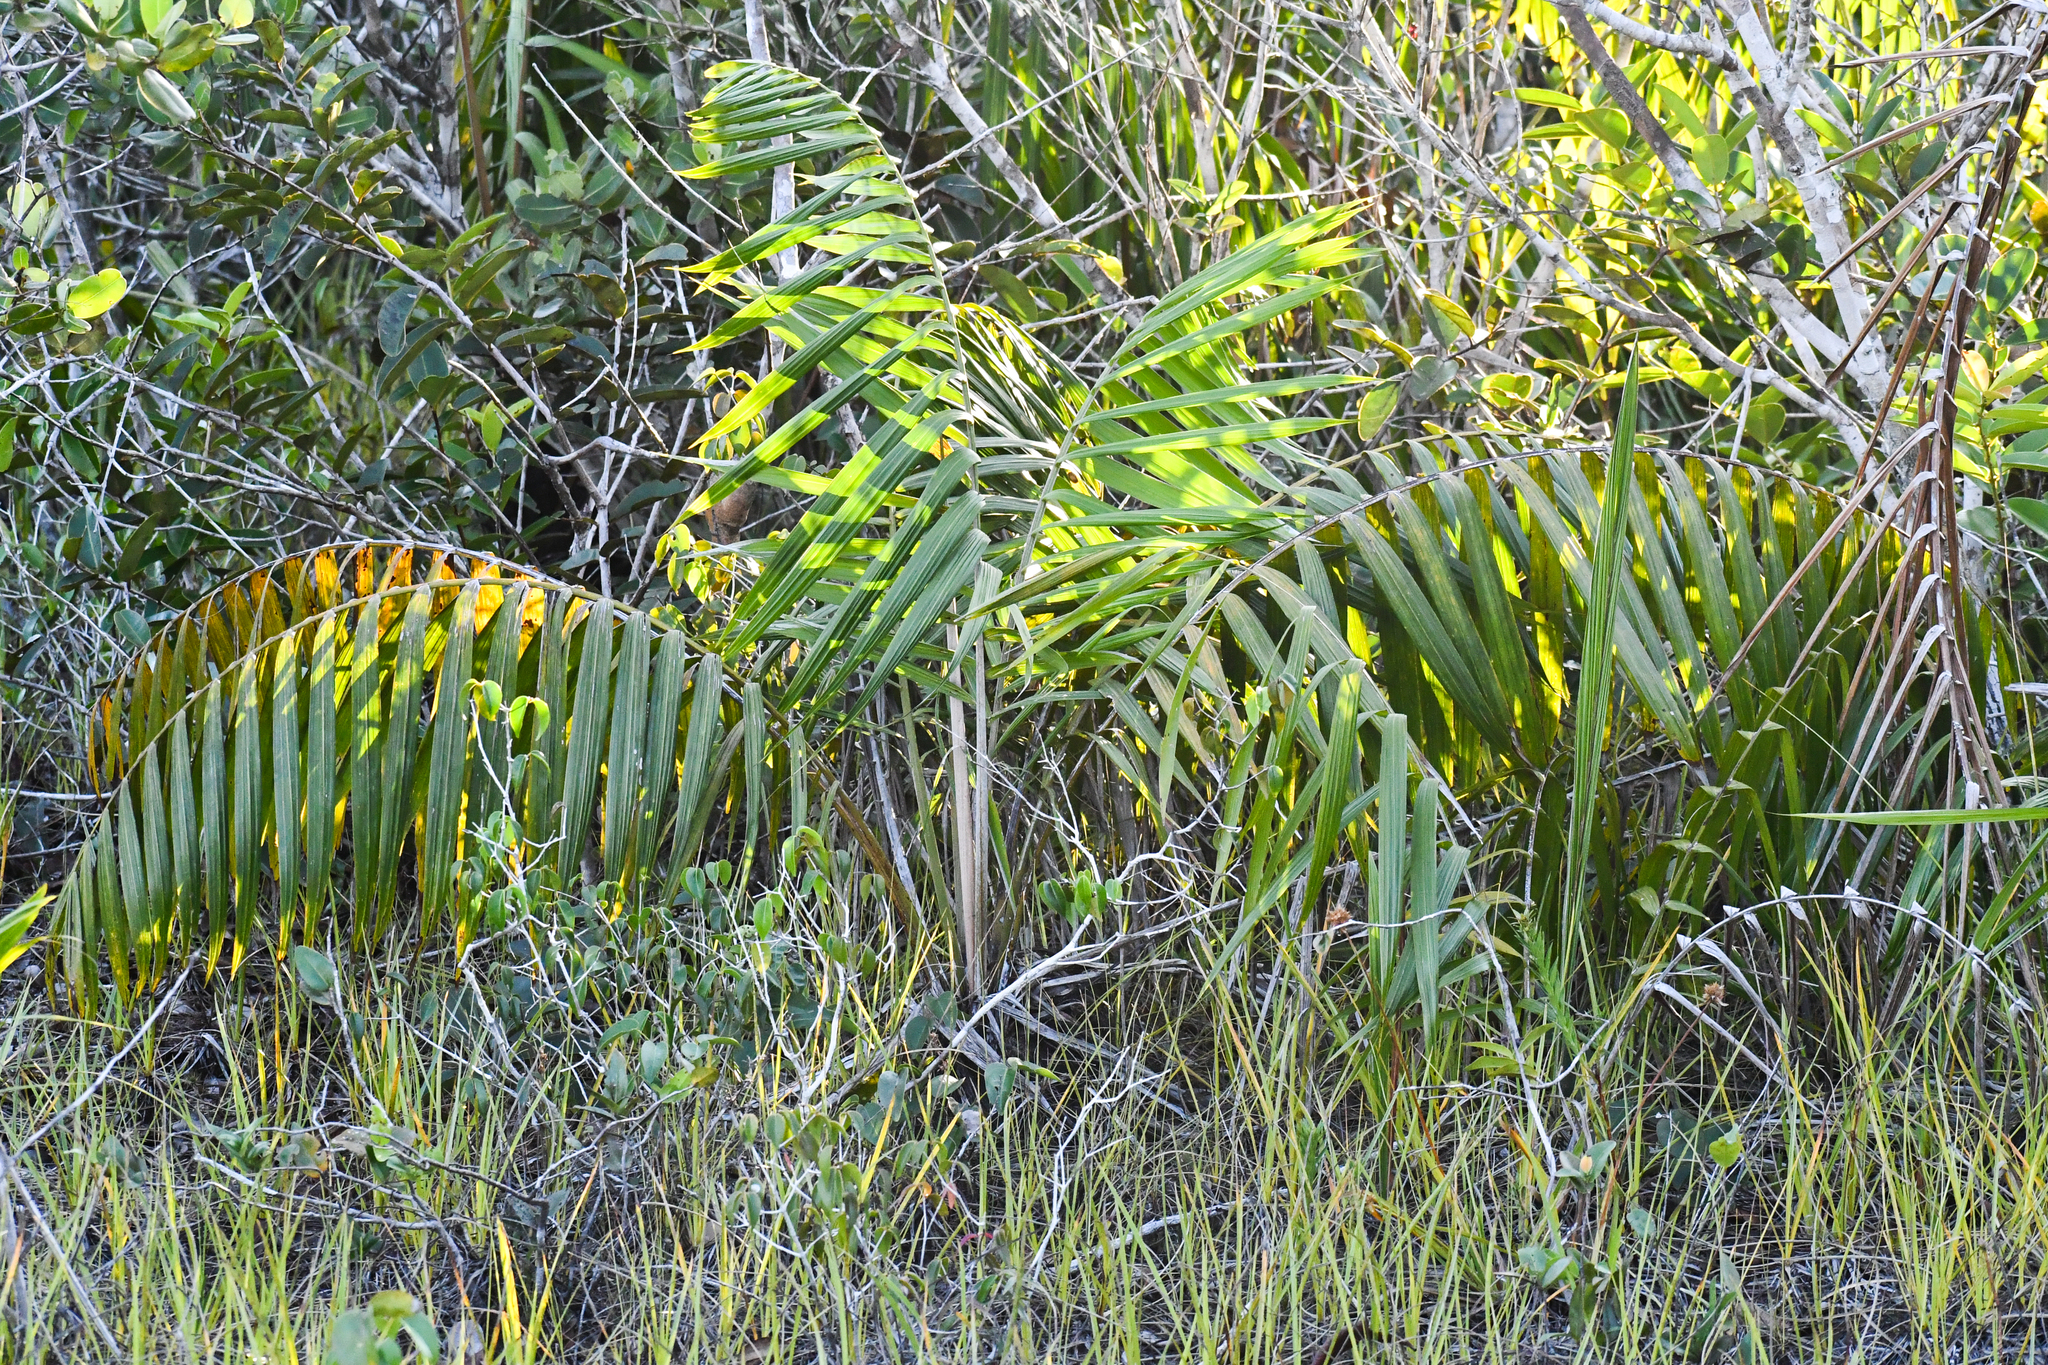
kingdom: Plantae
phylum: Tracheophyta
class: Liliopsida
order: Arecales
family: Arecaceae
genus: Barcella
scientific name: Barcella odora
